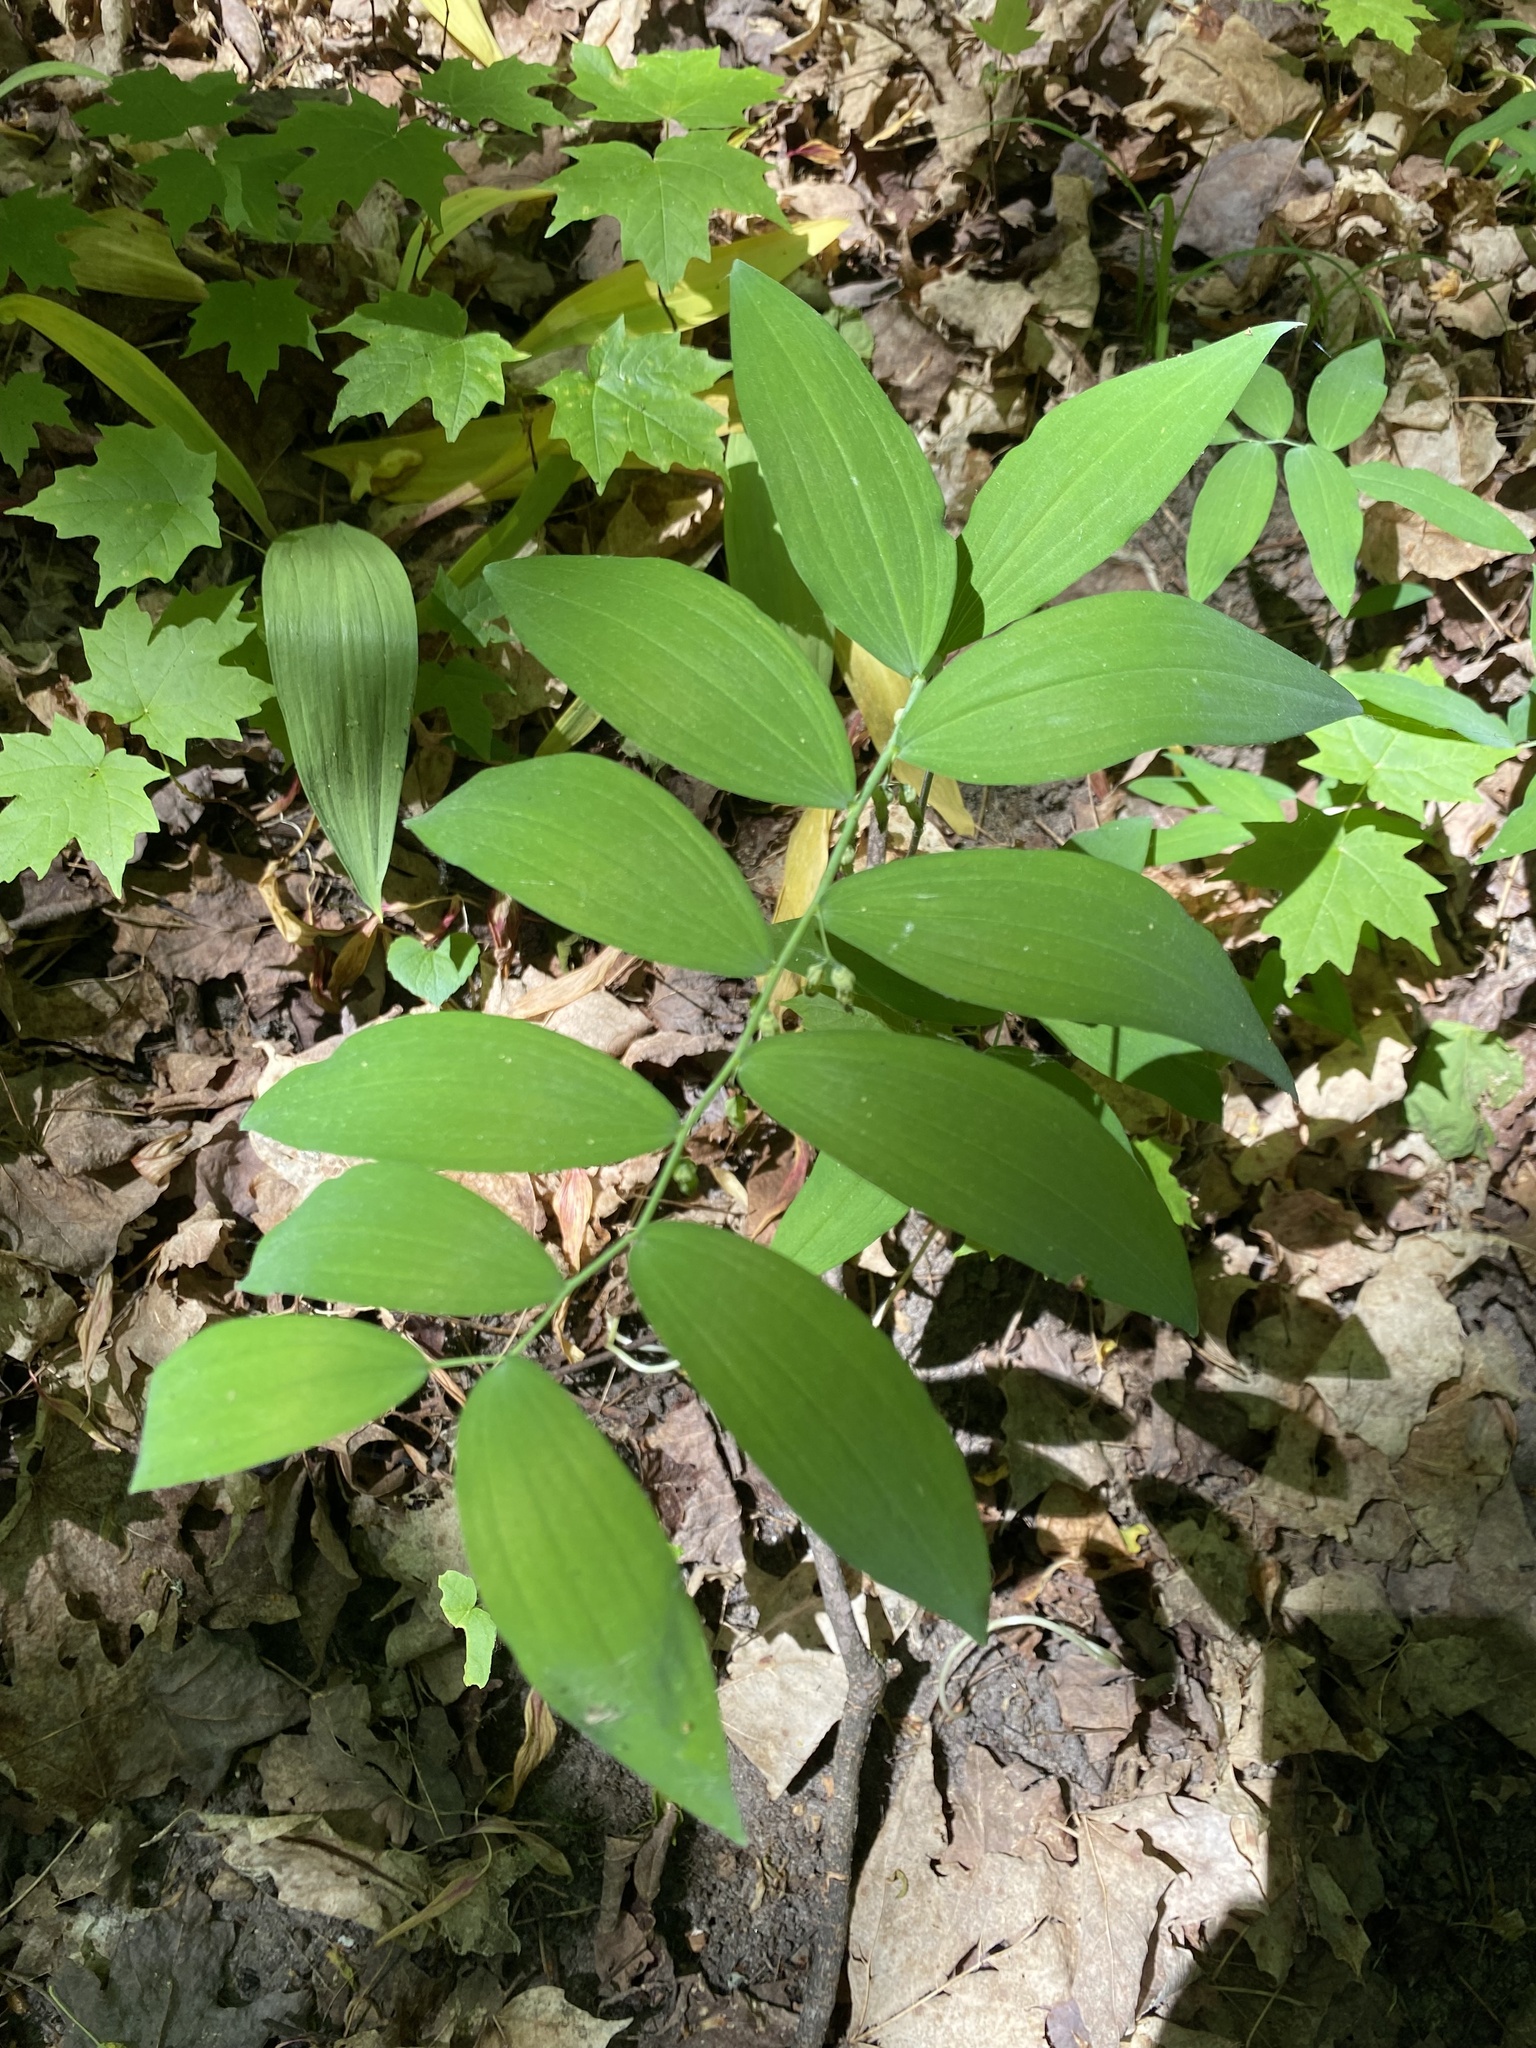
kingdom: Plantae
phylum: Tracheophyta
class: Liliopsida
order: Asparagales
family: Asparagaceae
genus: Polygonatum
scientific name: Polygonatum pubescens
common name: Downy solomon's seal
